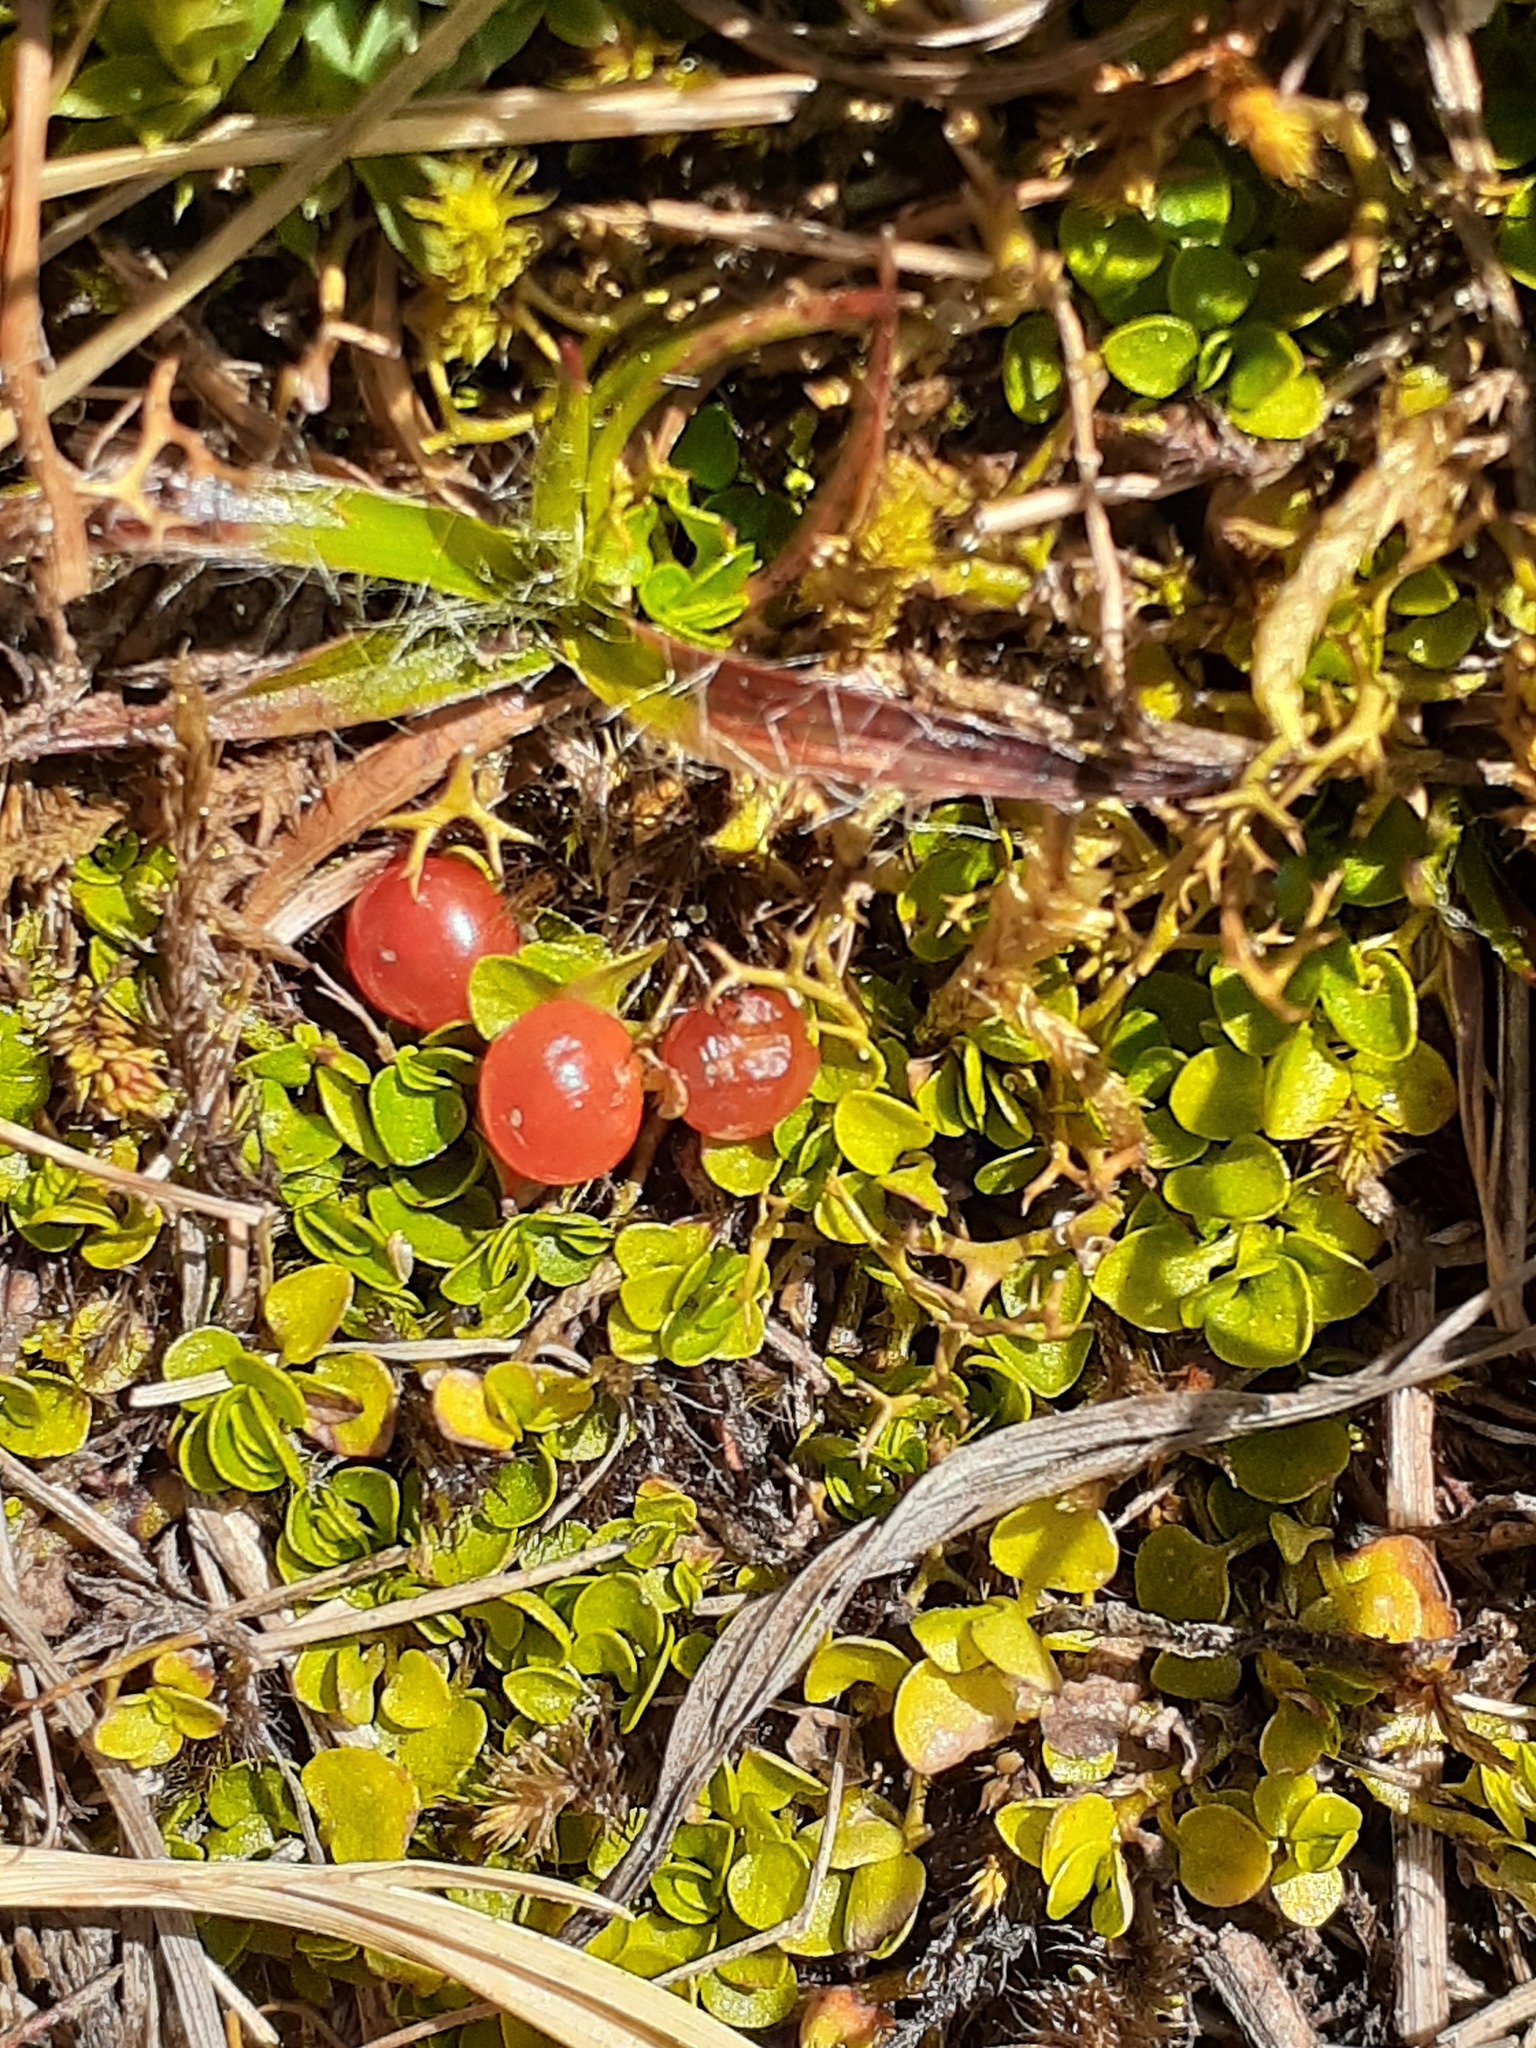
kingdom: Plantae
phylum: Tracheophyta
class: Magnoliopsida
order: Gentianales
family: Rubiaceae
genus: Nertera
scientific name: Nertera granadensis
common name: Beadplant
